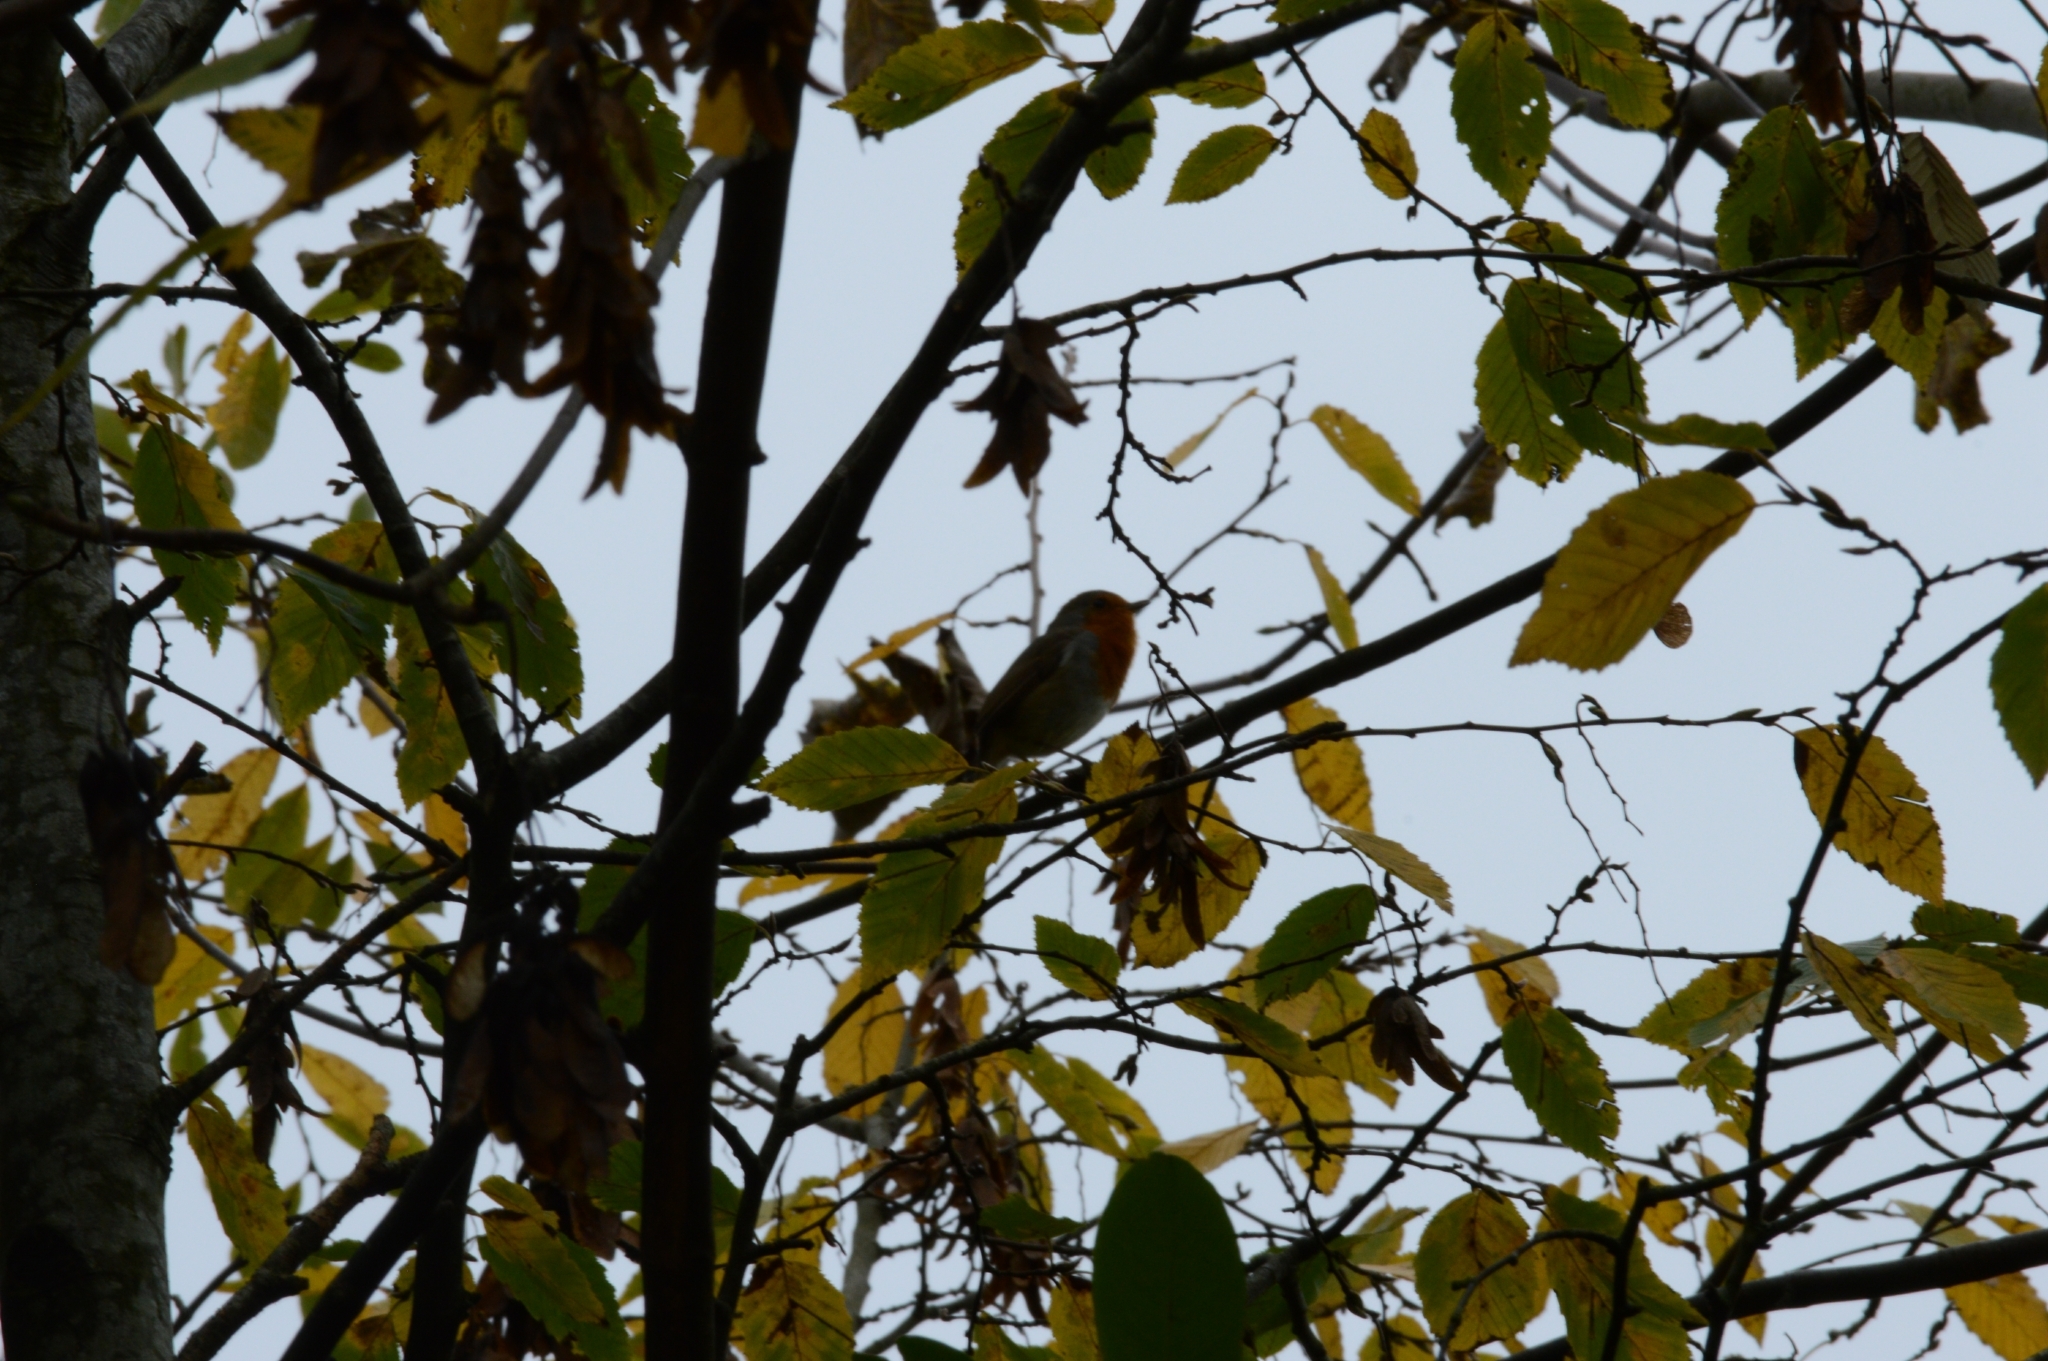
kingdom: Animalia
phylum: Chordata
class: Aves
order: Passeriformes
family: Muscicapidae
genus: Erithacus
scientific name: Erithacus rubecula
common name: European robin
